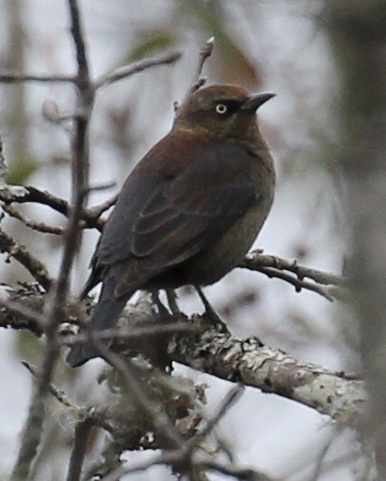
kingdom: Animalia
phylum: Chordata
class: Aves
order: Passeriformes
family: Icteridae
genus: Euphagus
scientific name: Euphagus carolinus
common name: Rusty blackbird
